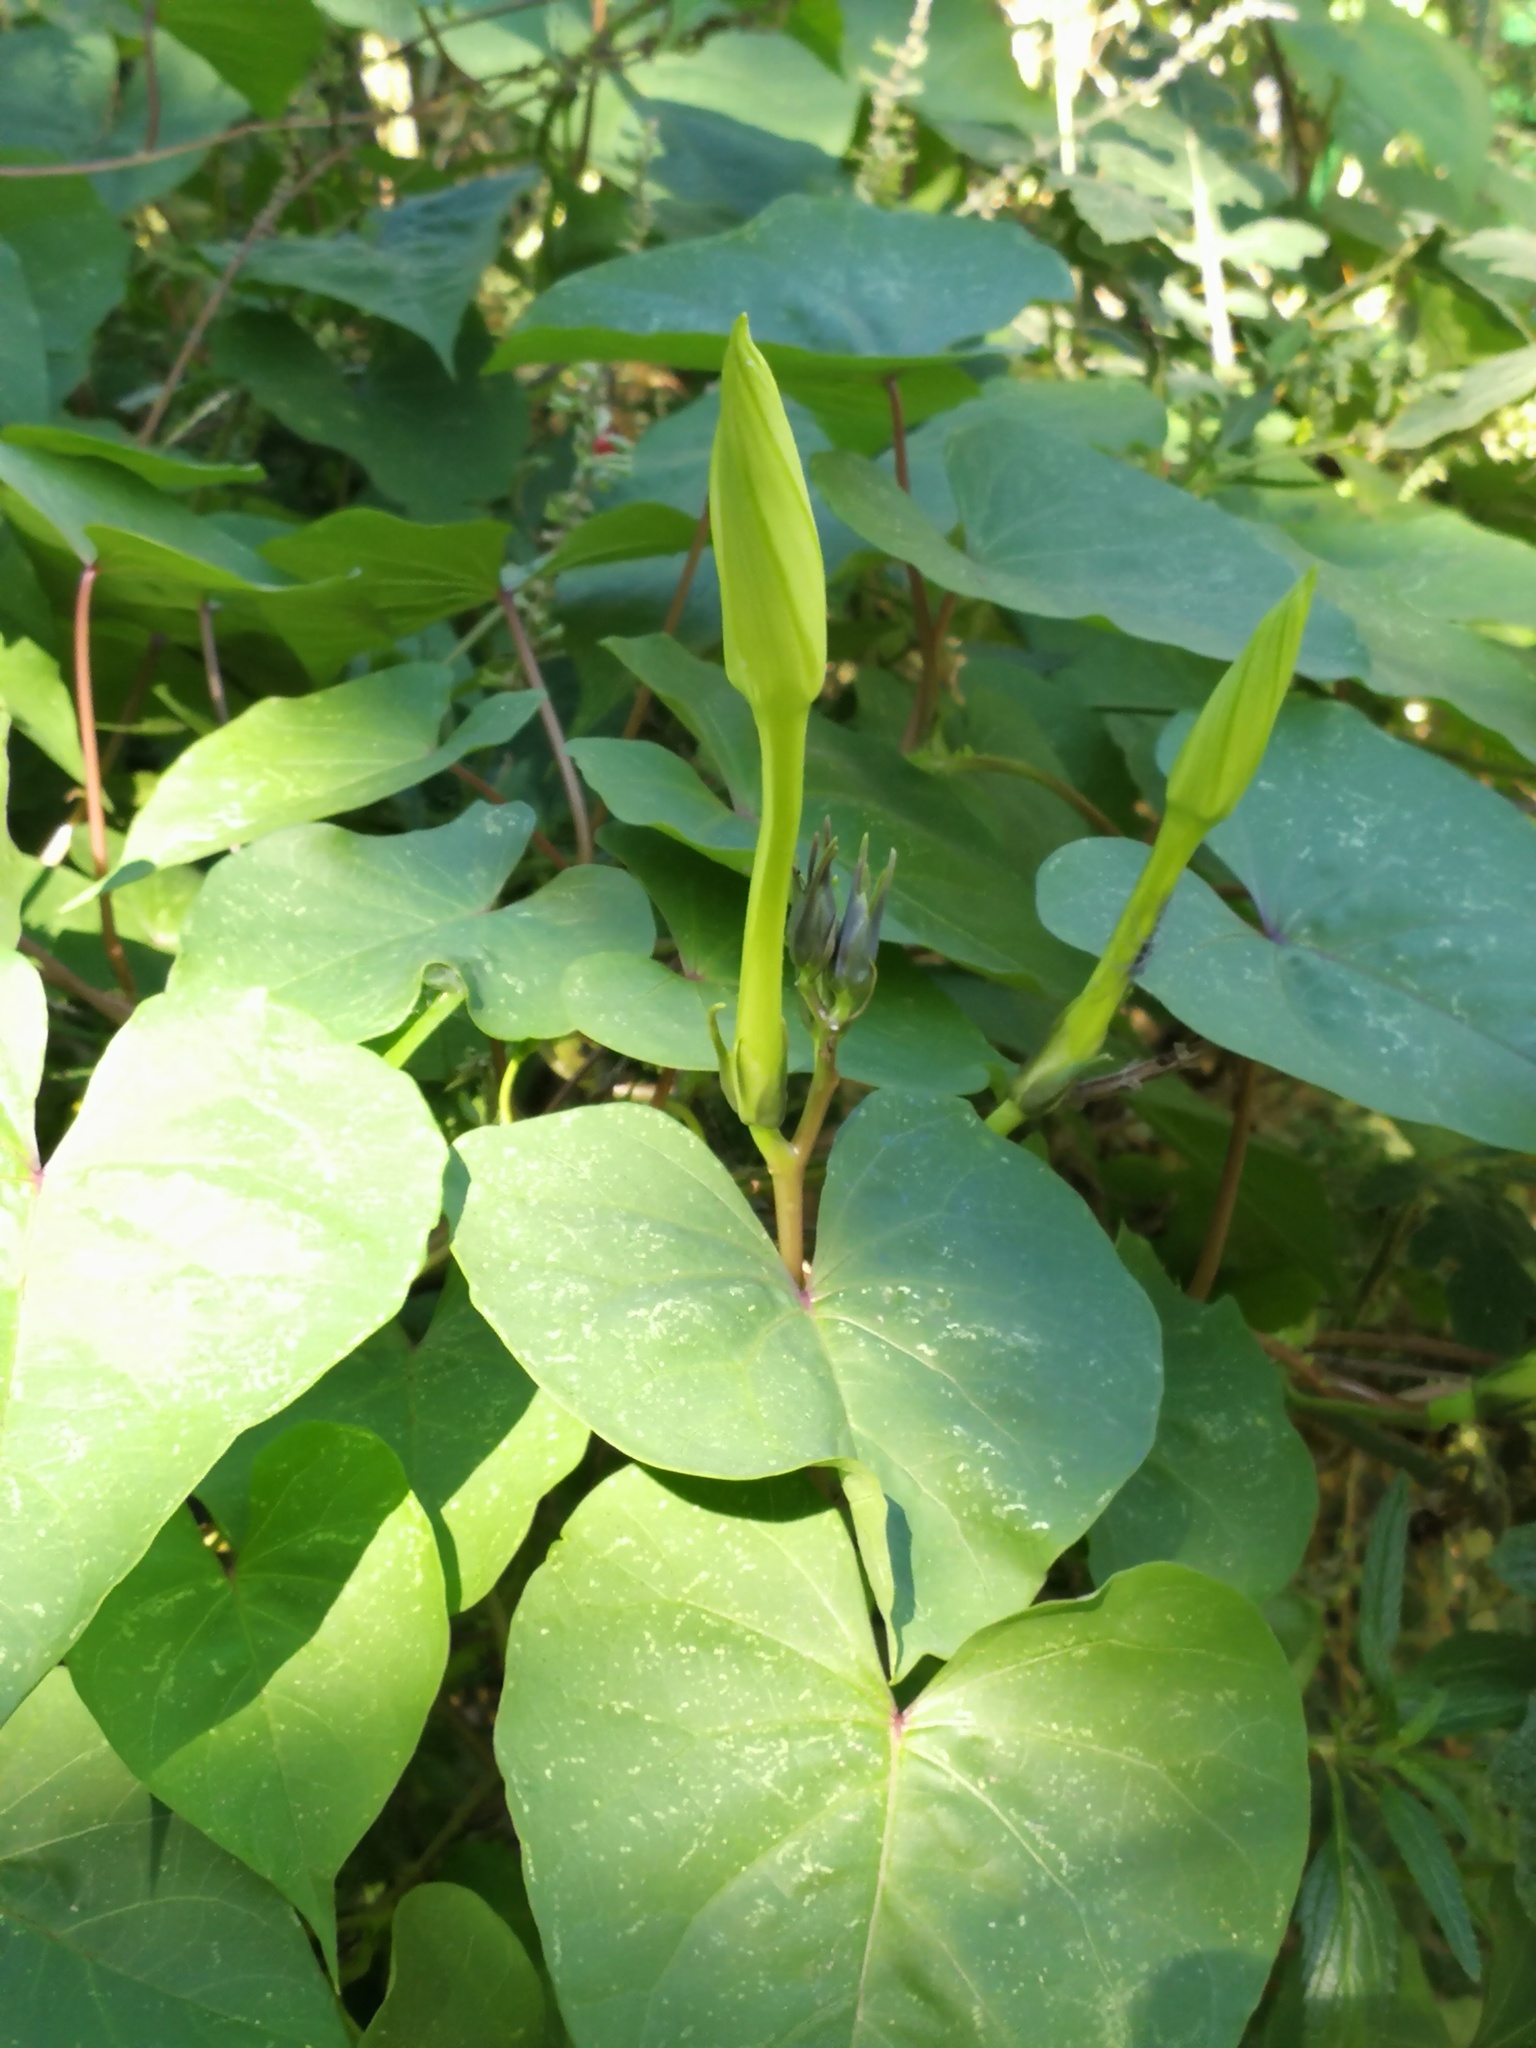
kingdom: Plantae
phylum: Tracheophyta
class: Magnoliopsida
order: Solanales
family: Convolvulaceae
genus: Ipomoea
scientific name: Ipomoea alba
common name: Moonflower
